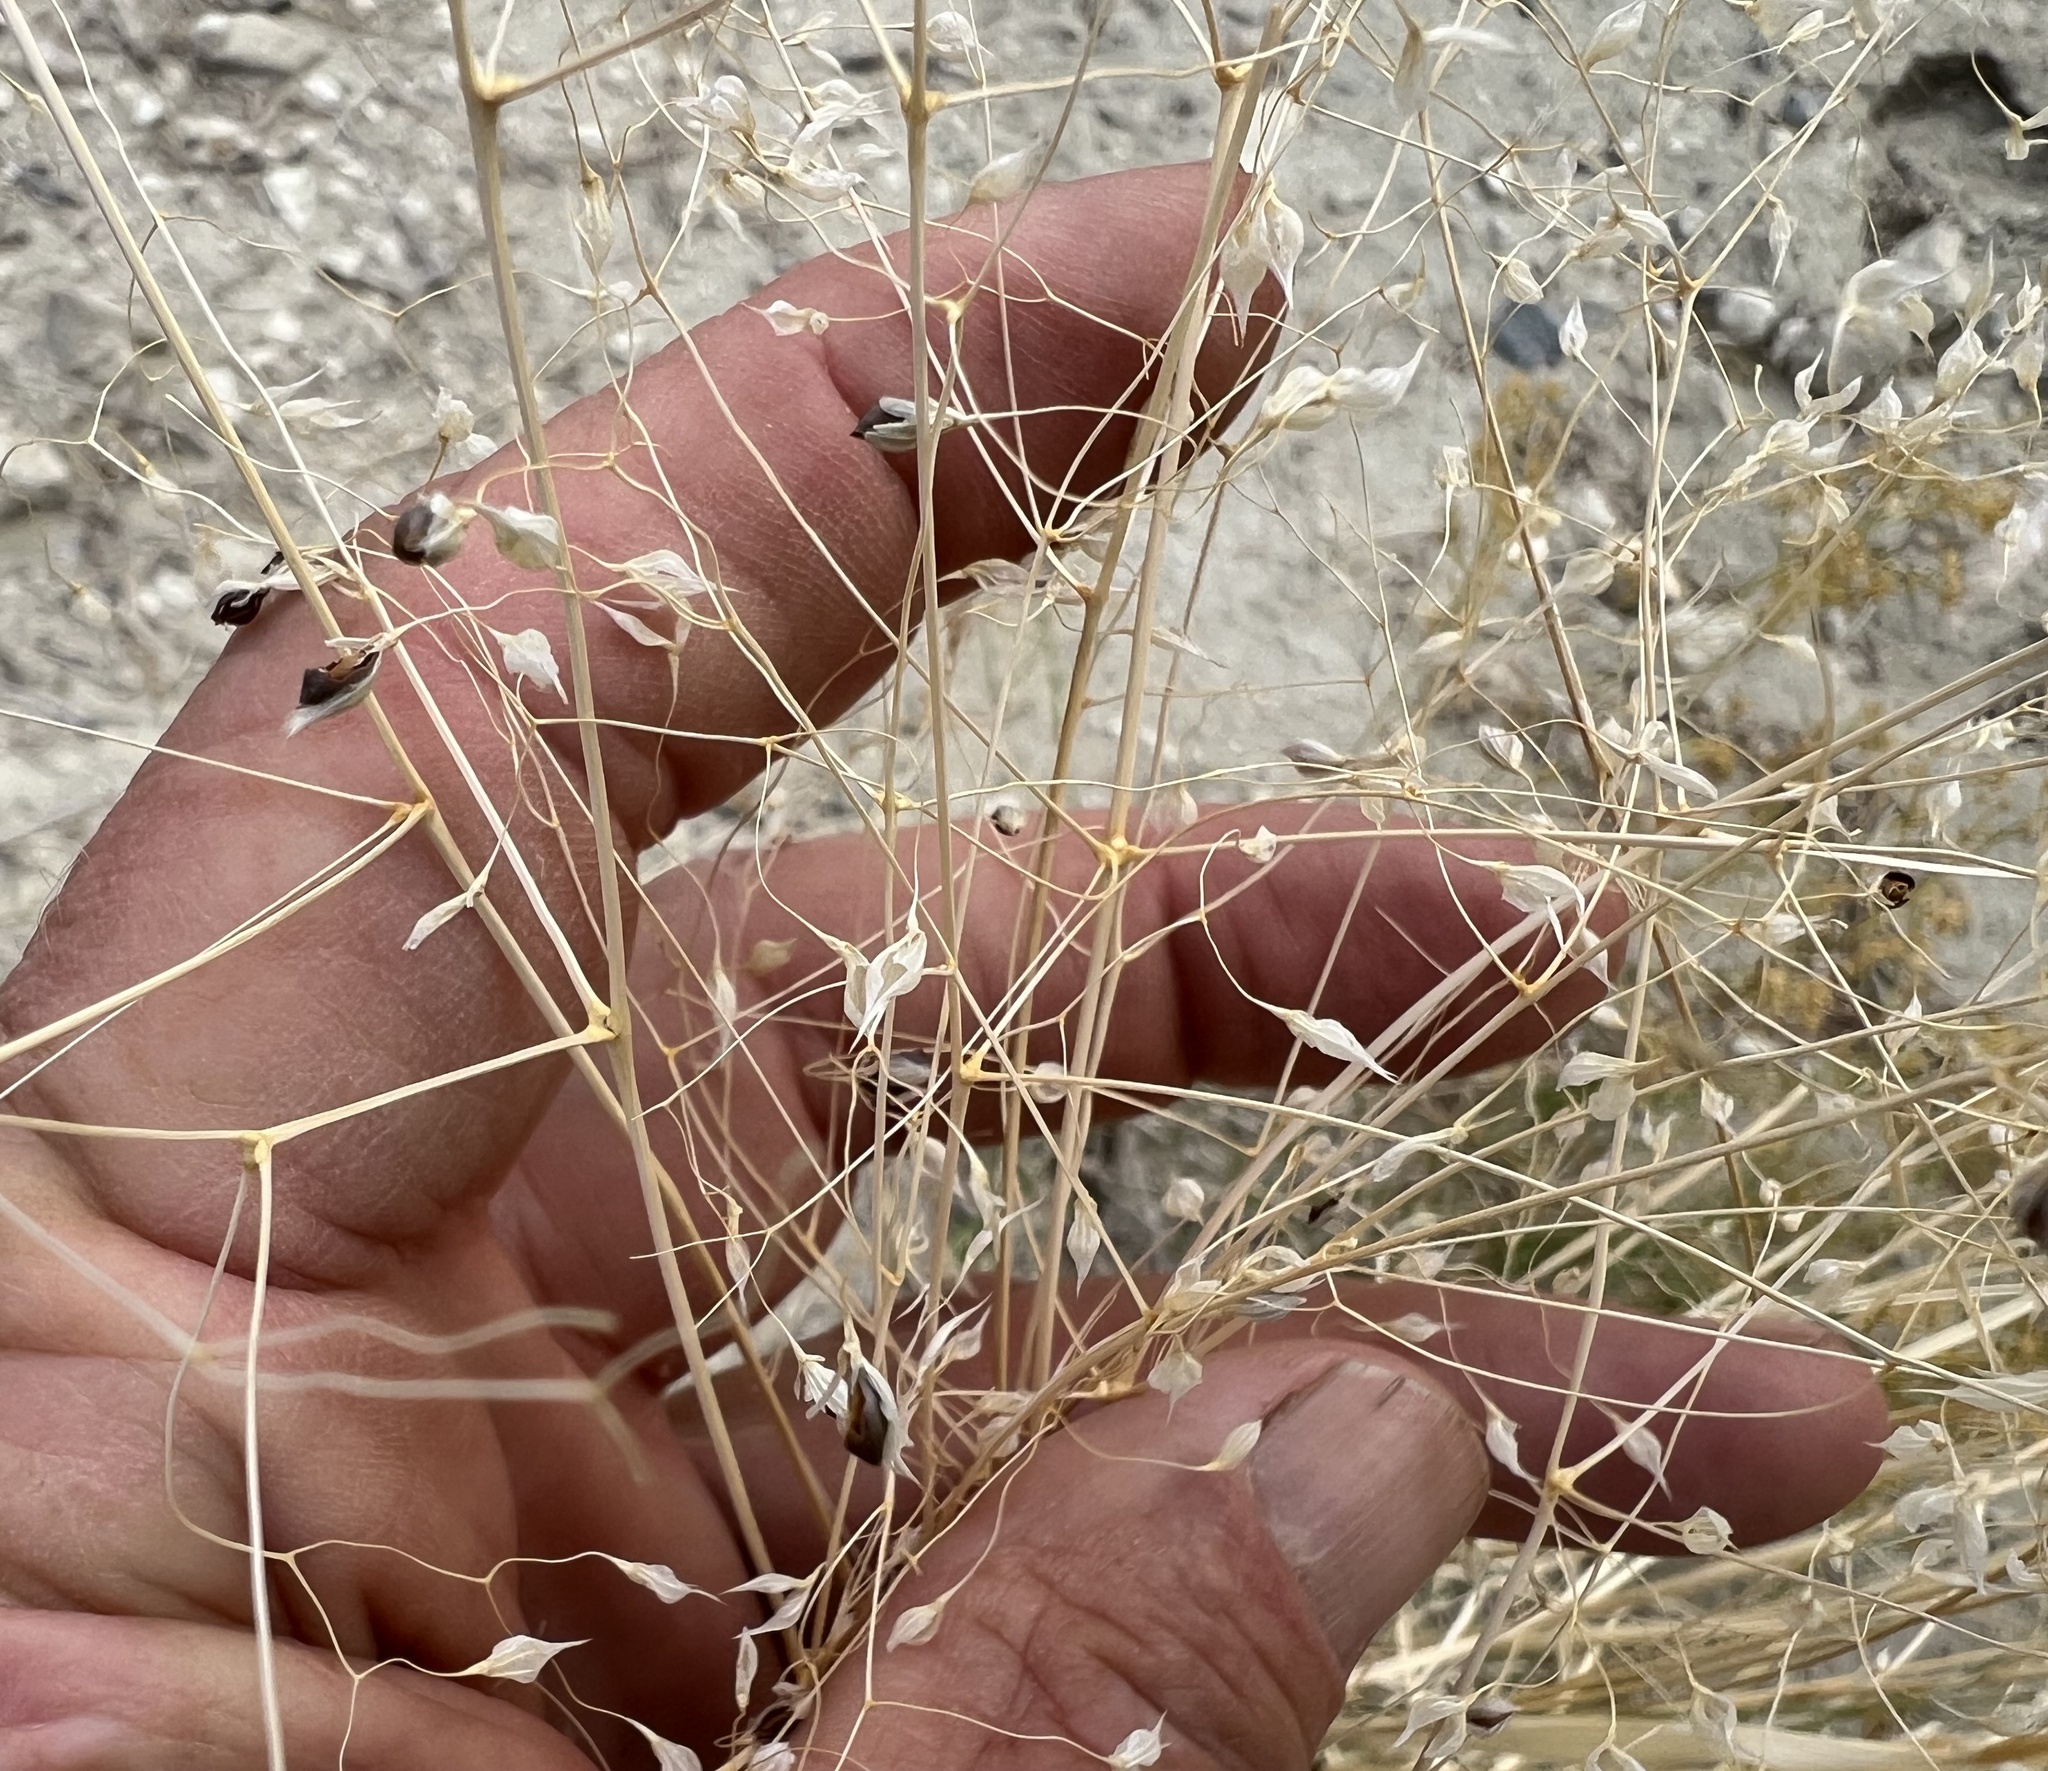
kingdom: Plantae
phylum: Tracheophyta
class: Liliopsida
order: Poales
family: Poaceae
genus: Eriocoma
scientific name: Eriocoma hymenoides
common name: Indian mountain ricegrass
